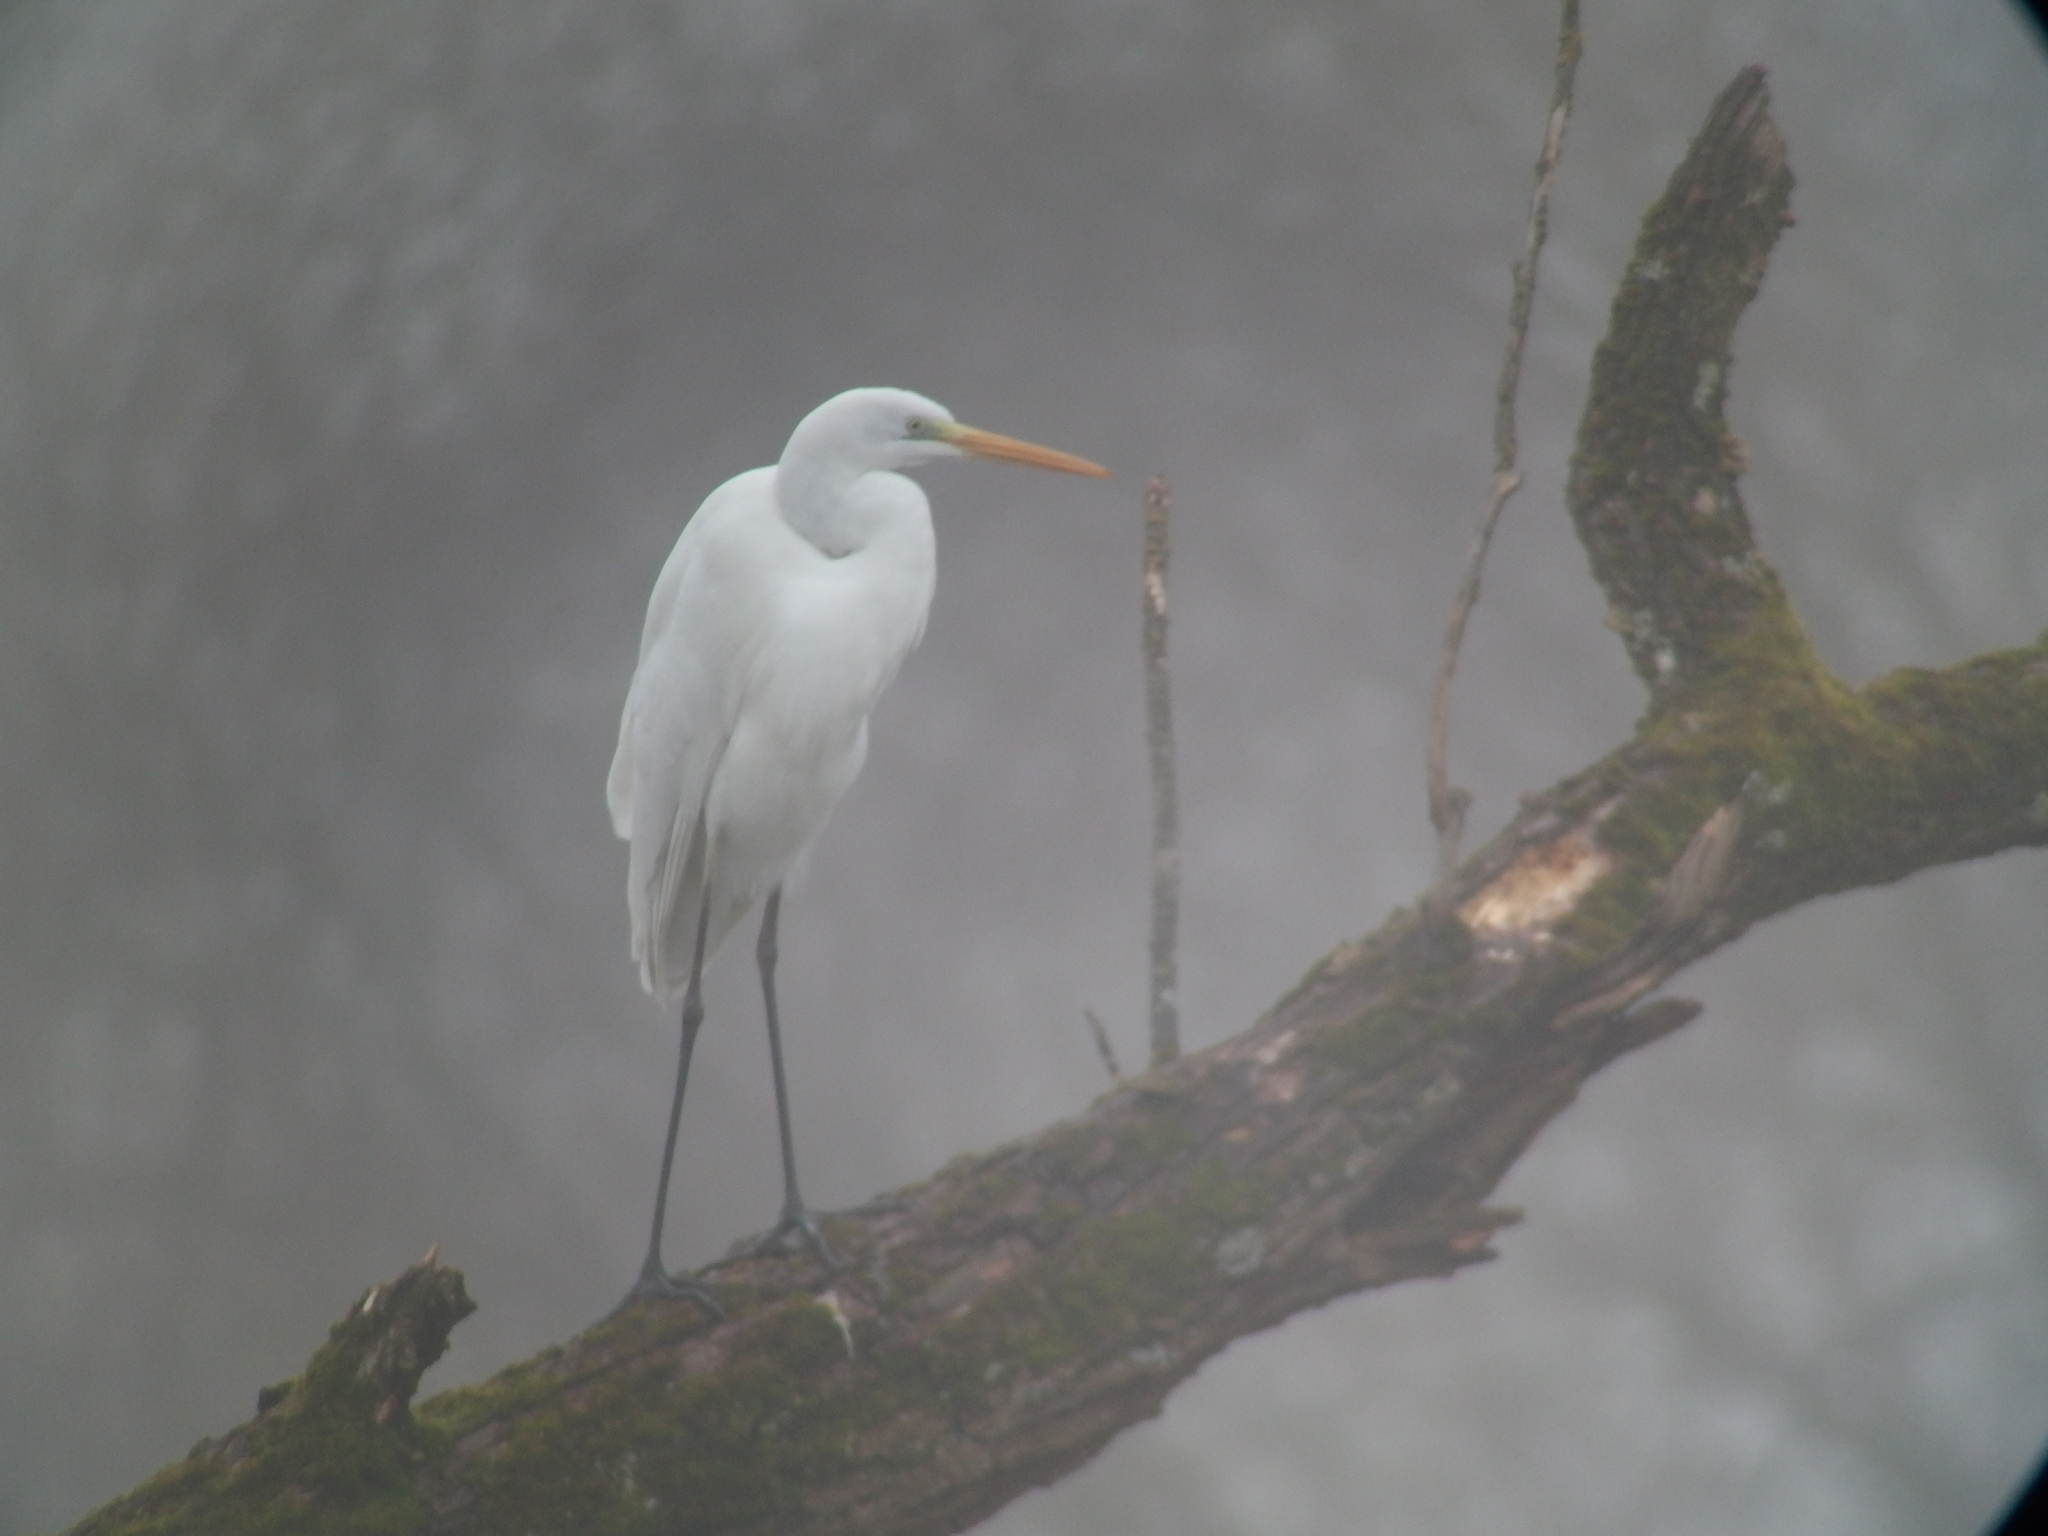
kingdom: Animalia
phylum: Chordata
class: Aves
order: Pelecaniformes
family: Ardeidae
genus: Ardea
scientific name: Ardea alba
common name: Great egret
